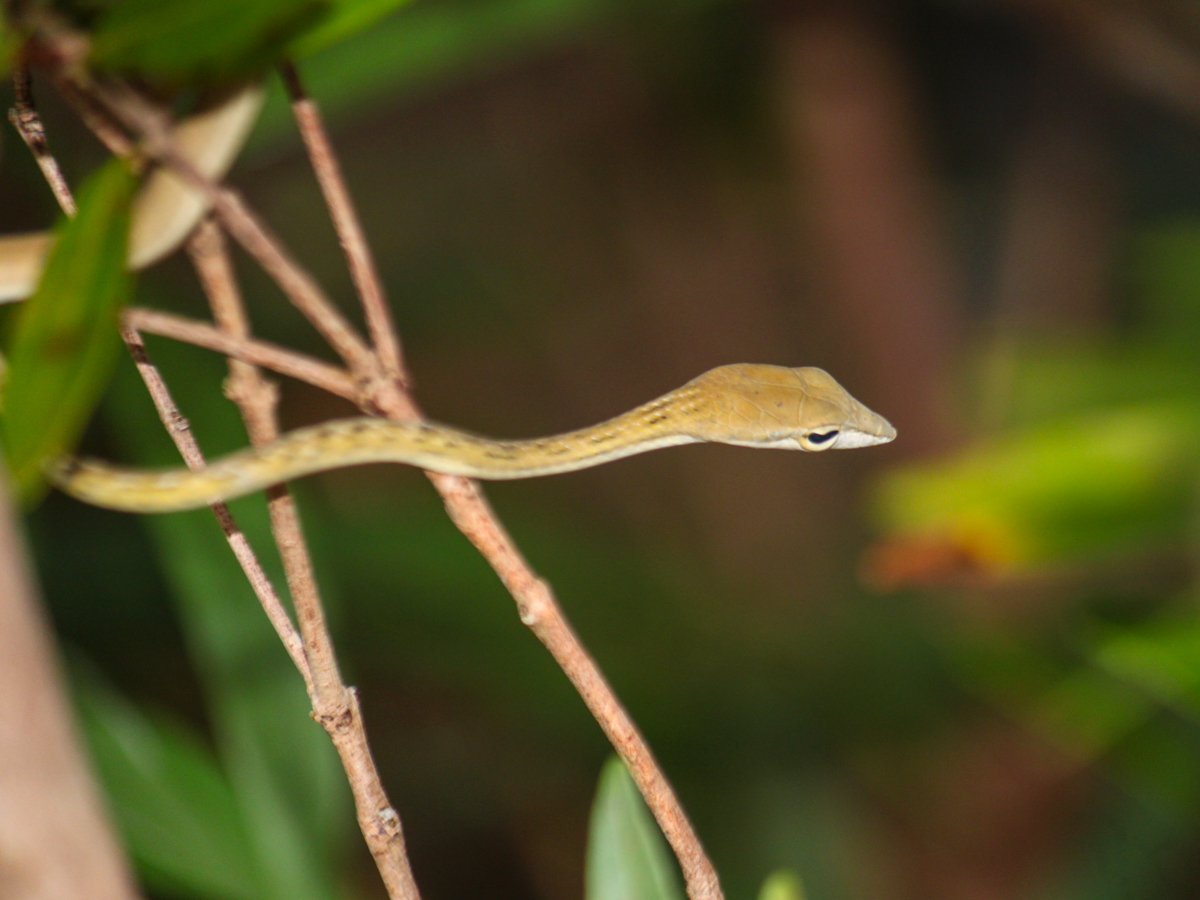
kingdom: Animalia
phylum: Chordata
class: Squamata
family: Colubridae
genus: Ahaetulla
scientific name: Ahaetulla prasina
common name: Oriental whip snake
